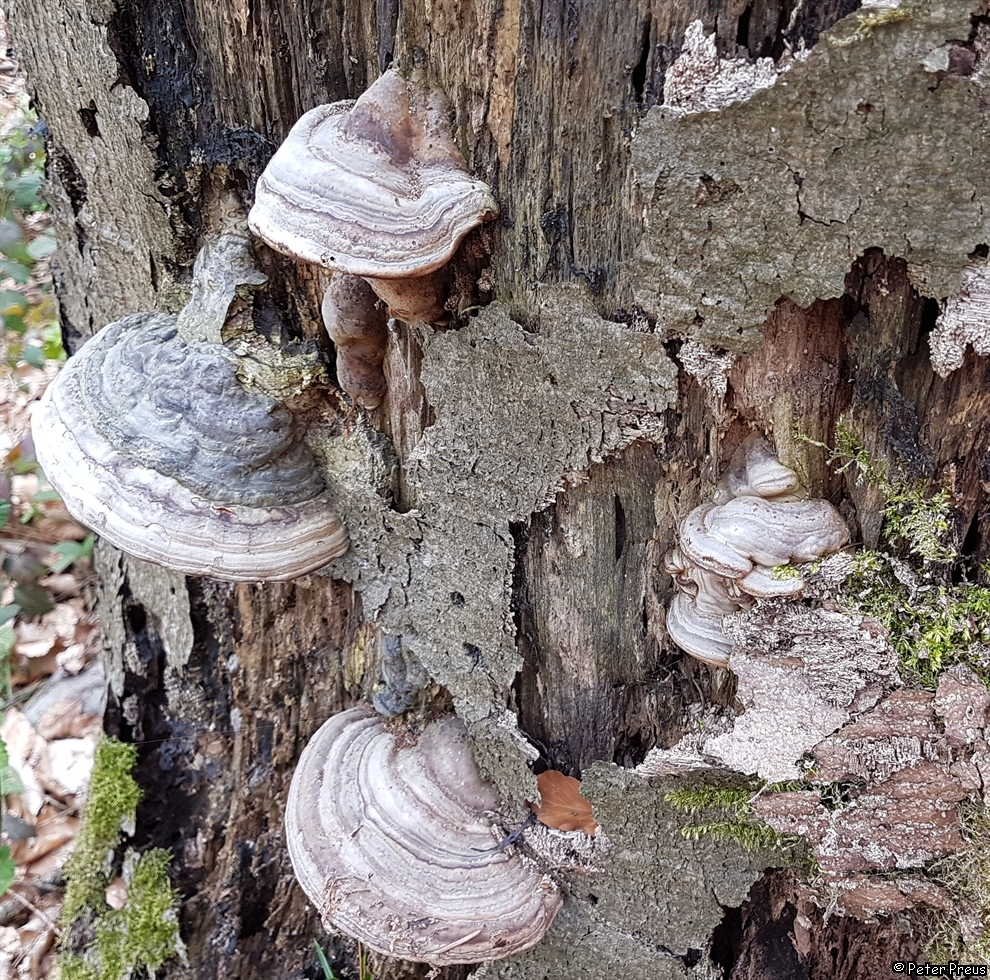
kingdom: Fungi
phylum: Basidiomycota
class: Agaricomycetes
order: Polyporales
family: Polyporaceae
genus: Fomes
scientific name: Fomes fomentarius
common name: Hoof fungus
